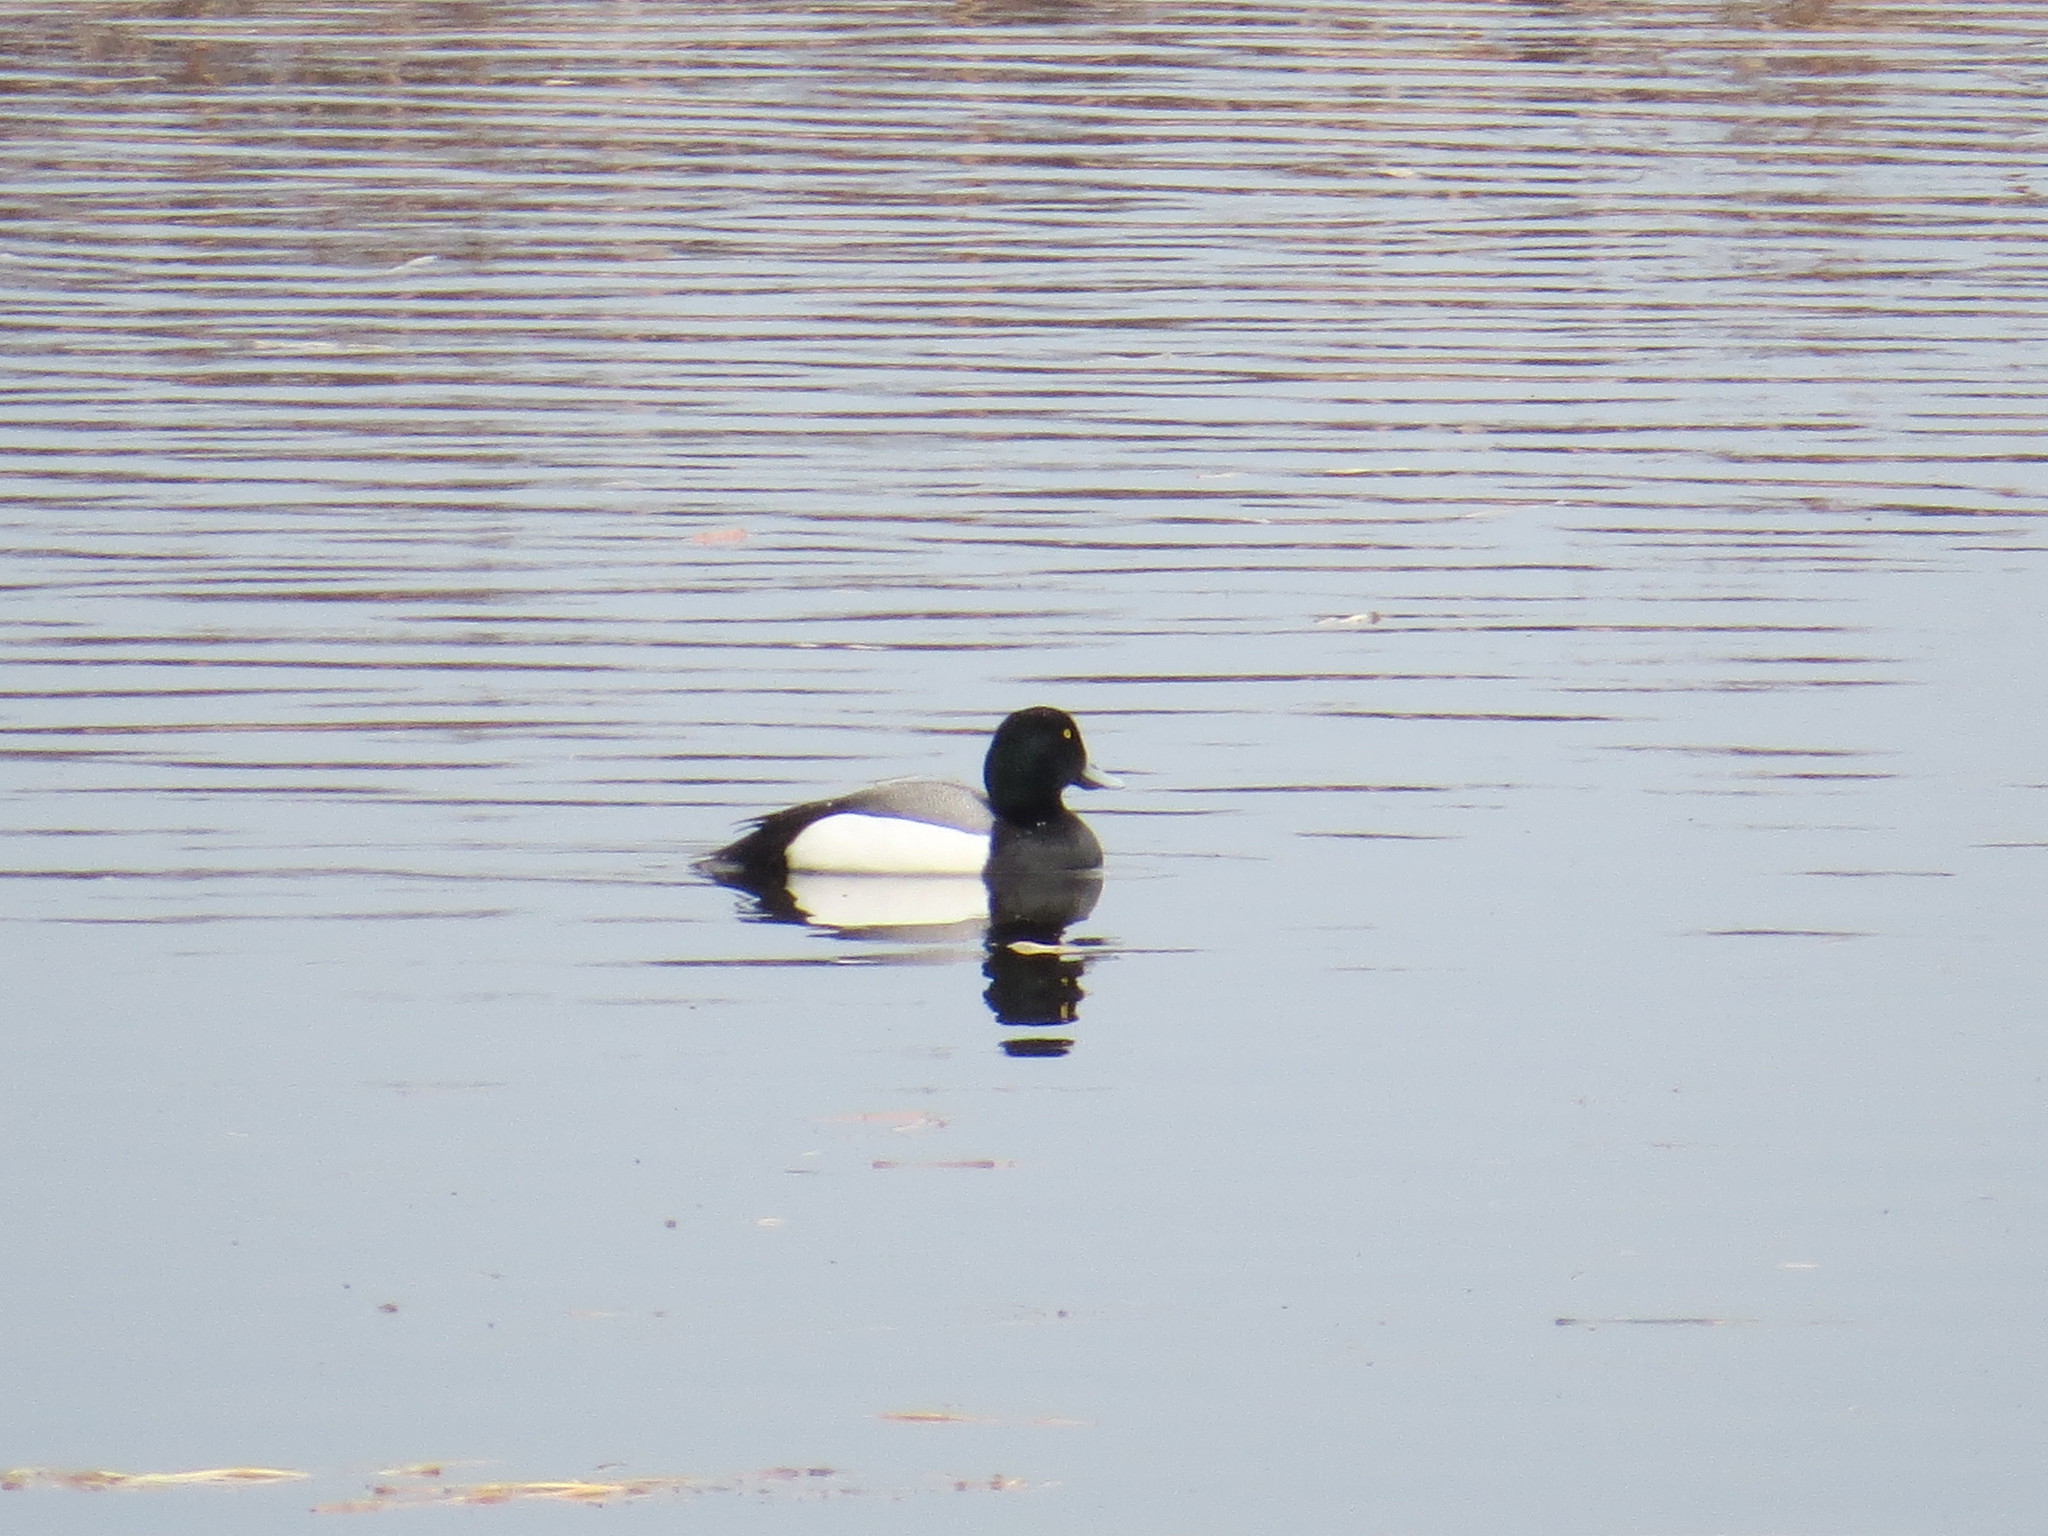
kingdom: Animalia
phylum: Chordata
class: Aves
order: Anseriformes
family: Anatidae
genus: Aythya
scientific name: Aythya marila
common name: Greater scaup
